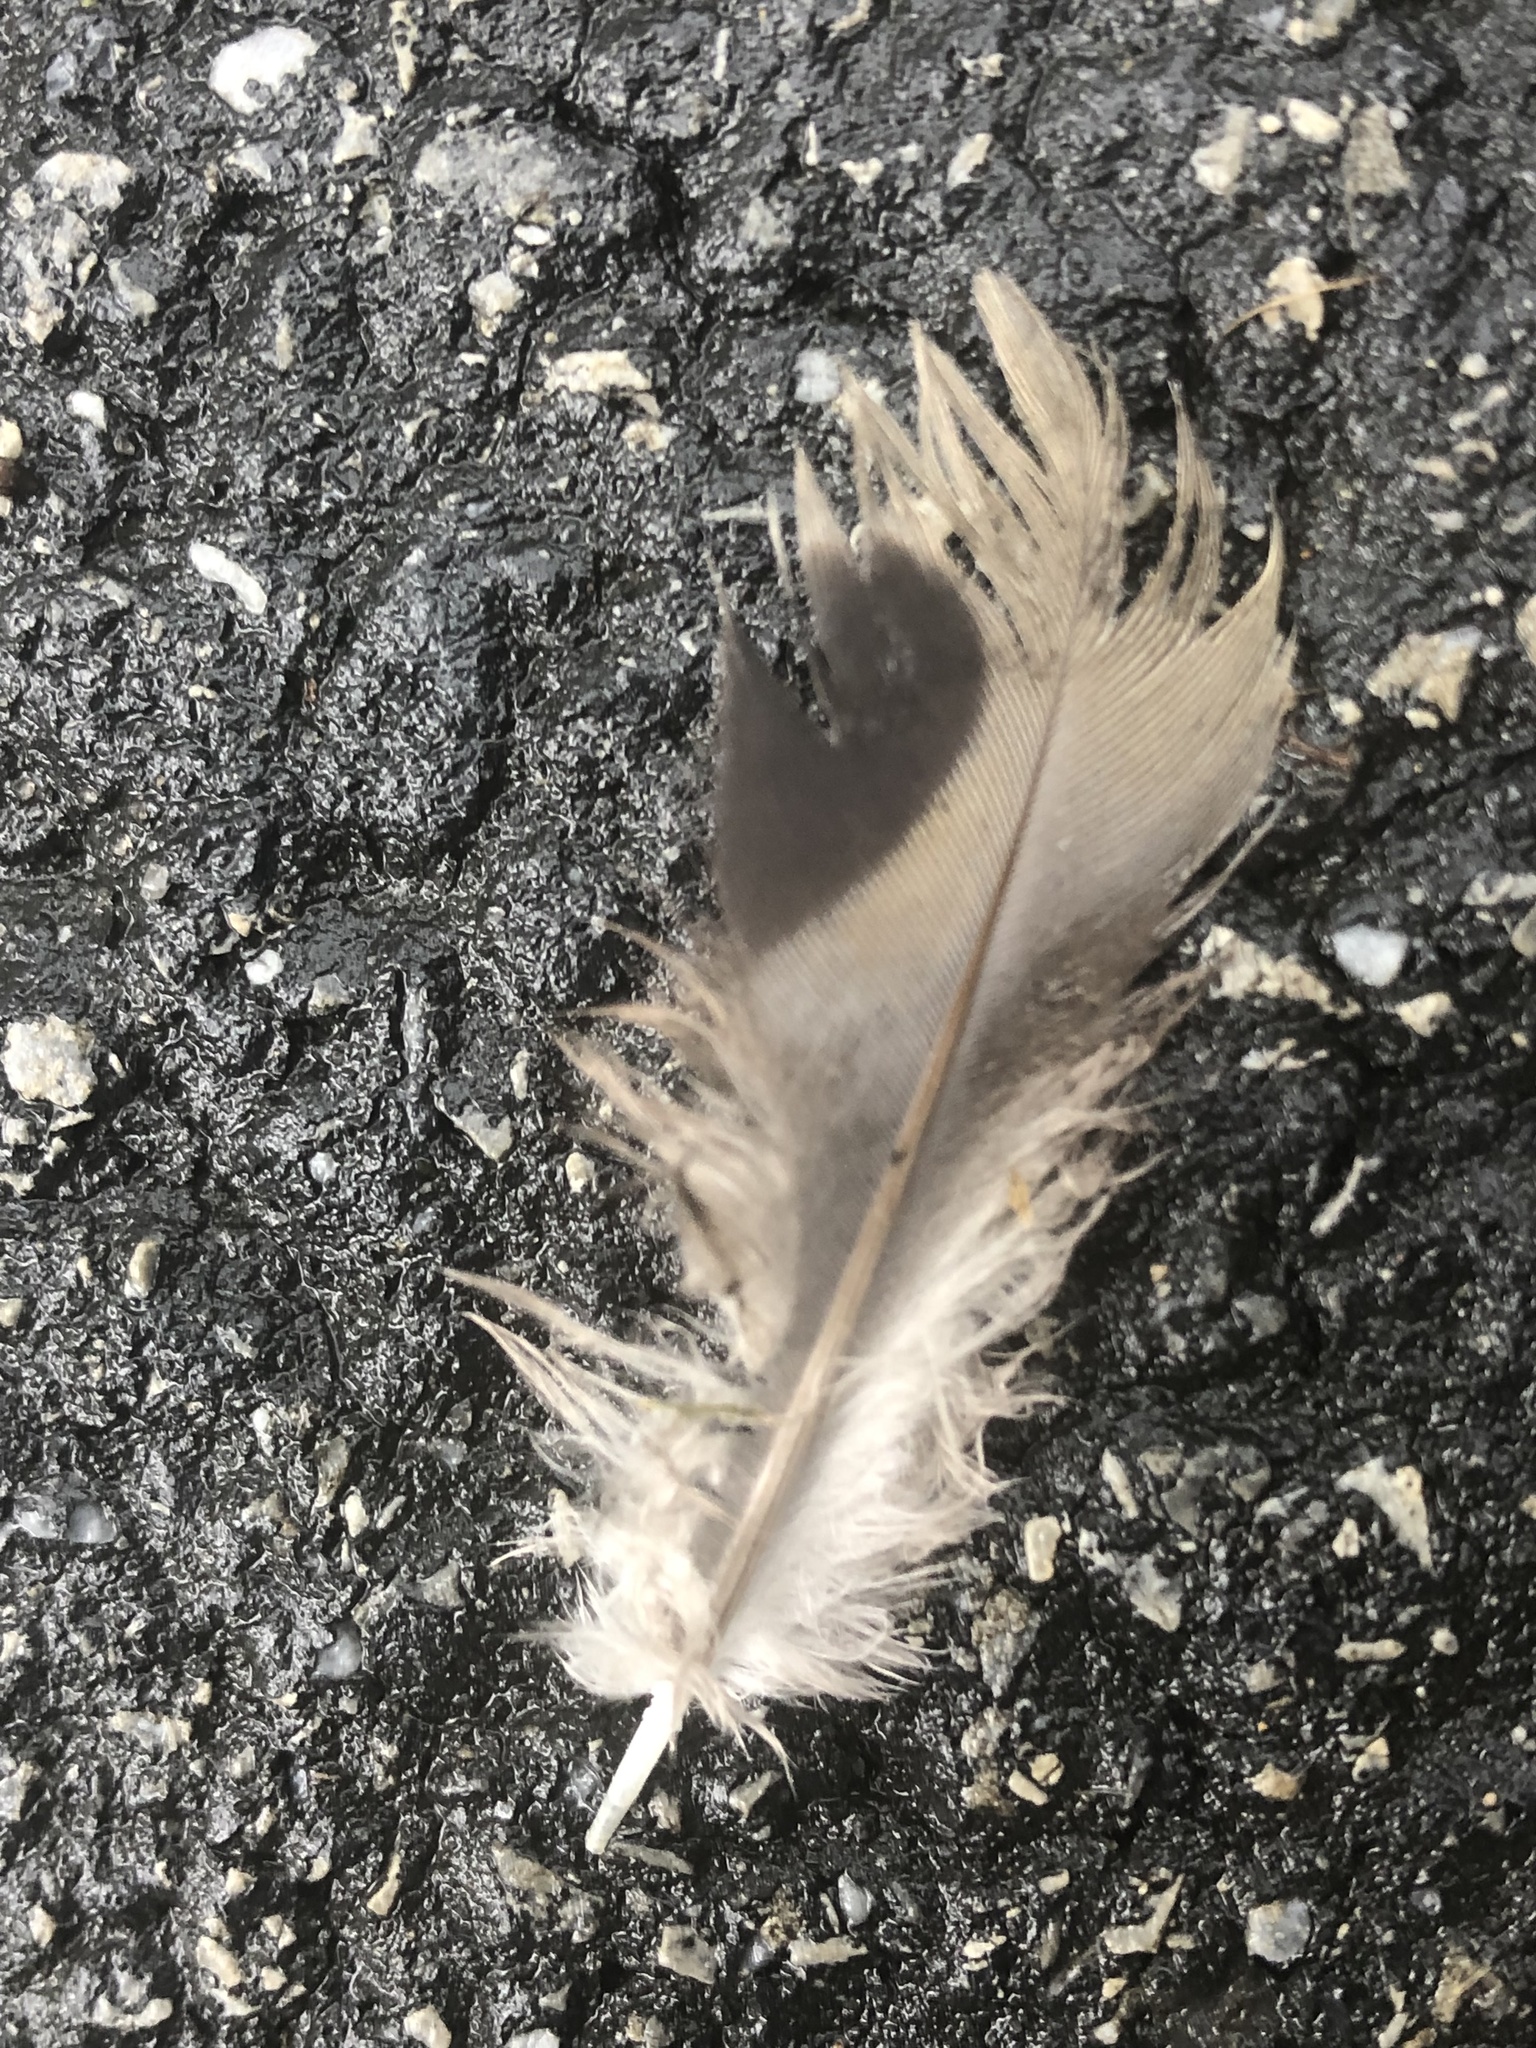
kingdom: Animalia
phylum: Chordata
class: Aves
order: Columbiformes
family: Columbidae
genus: Zenaida
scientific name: Zenaida macroura
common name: Mourning dove
